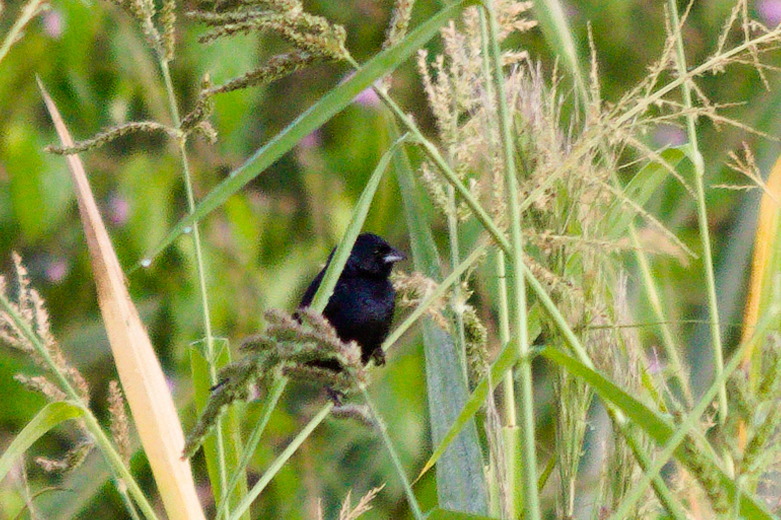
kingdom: Animalia
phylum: Chordata
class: Aves
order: Passeriformes
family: Thraupidae
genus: Volatinia
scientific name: Volatinia jacarina
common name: Blue-black grassquit
